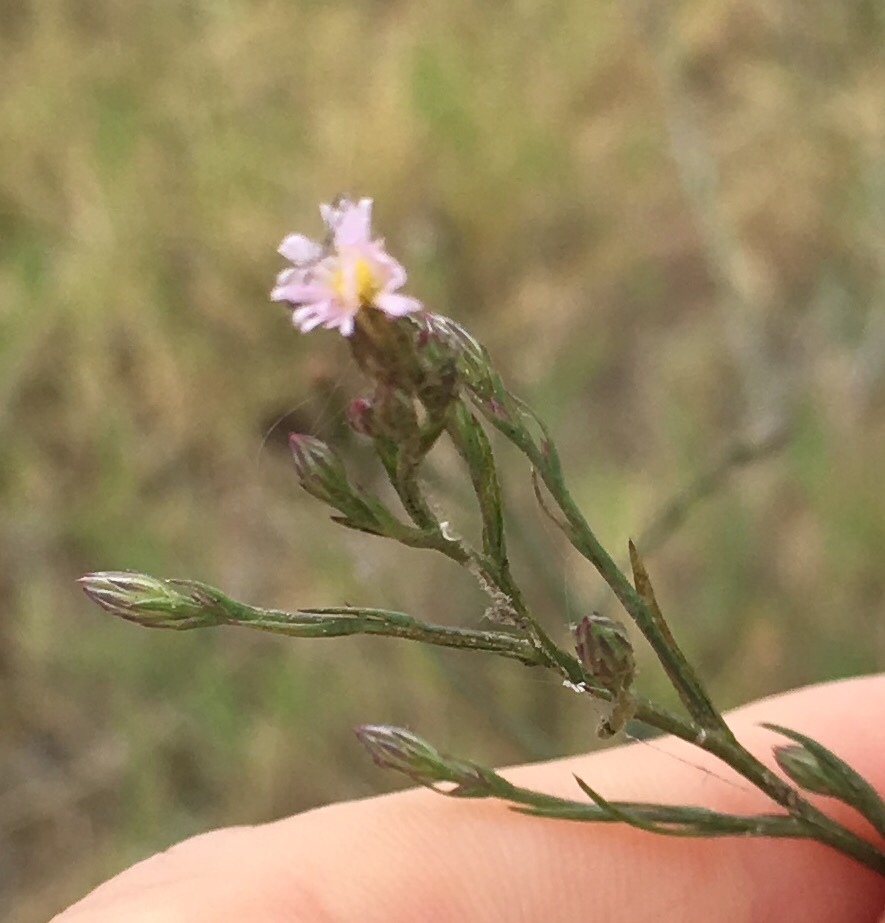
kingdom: Plantae
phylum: Tracheophyta
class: Magnoliopsida
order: Asterales
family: Asteraceae
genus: Symphyotrichum
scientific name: Symphyotrichum subulatum
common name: Annual saltmarsh aster
